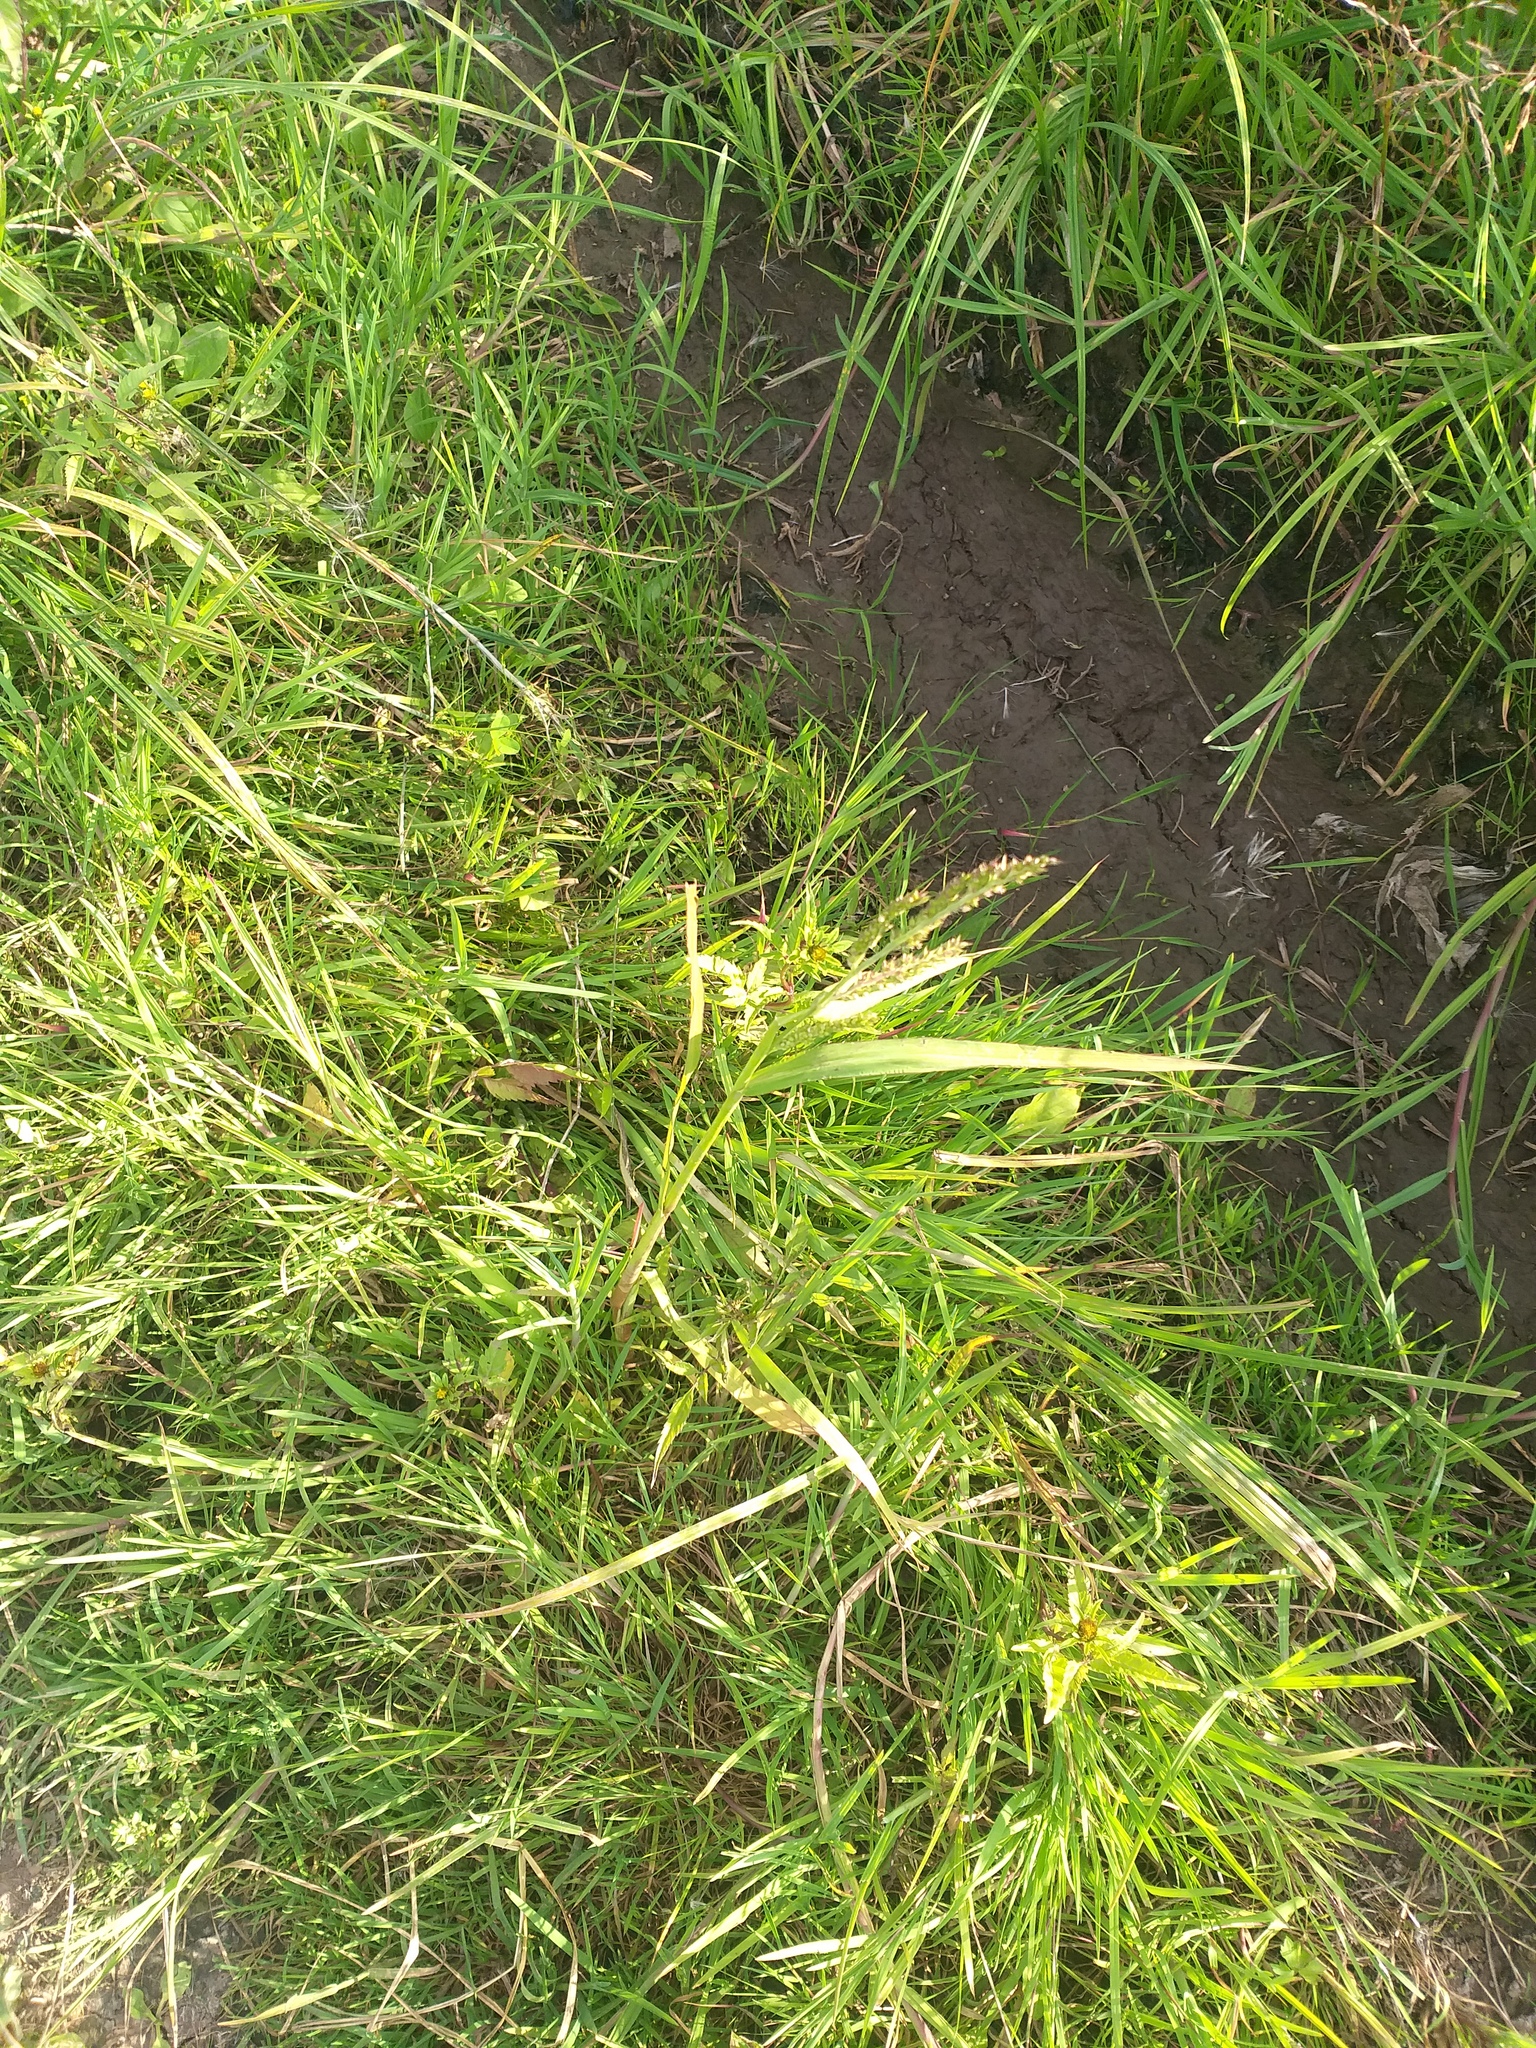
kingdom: Plantae
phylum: Tracheophyta
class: Liliopsida
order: Poales
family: Poaceae
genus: Echinochloa
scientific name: Echinochloa crus-galli
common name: Cockspur
